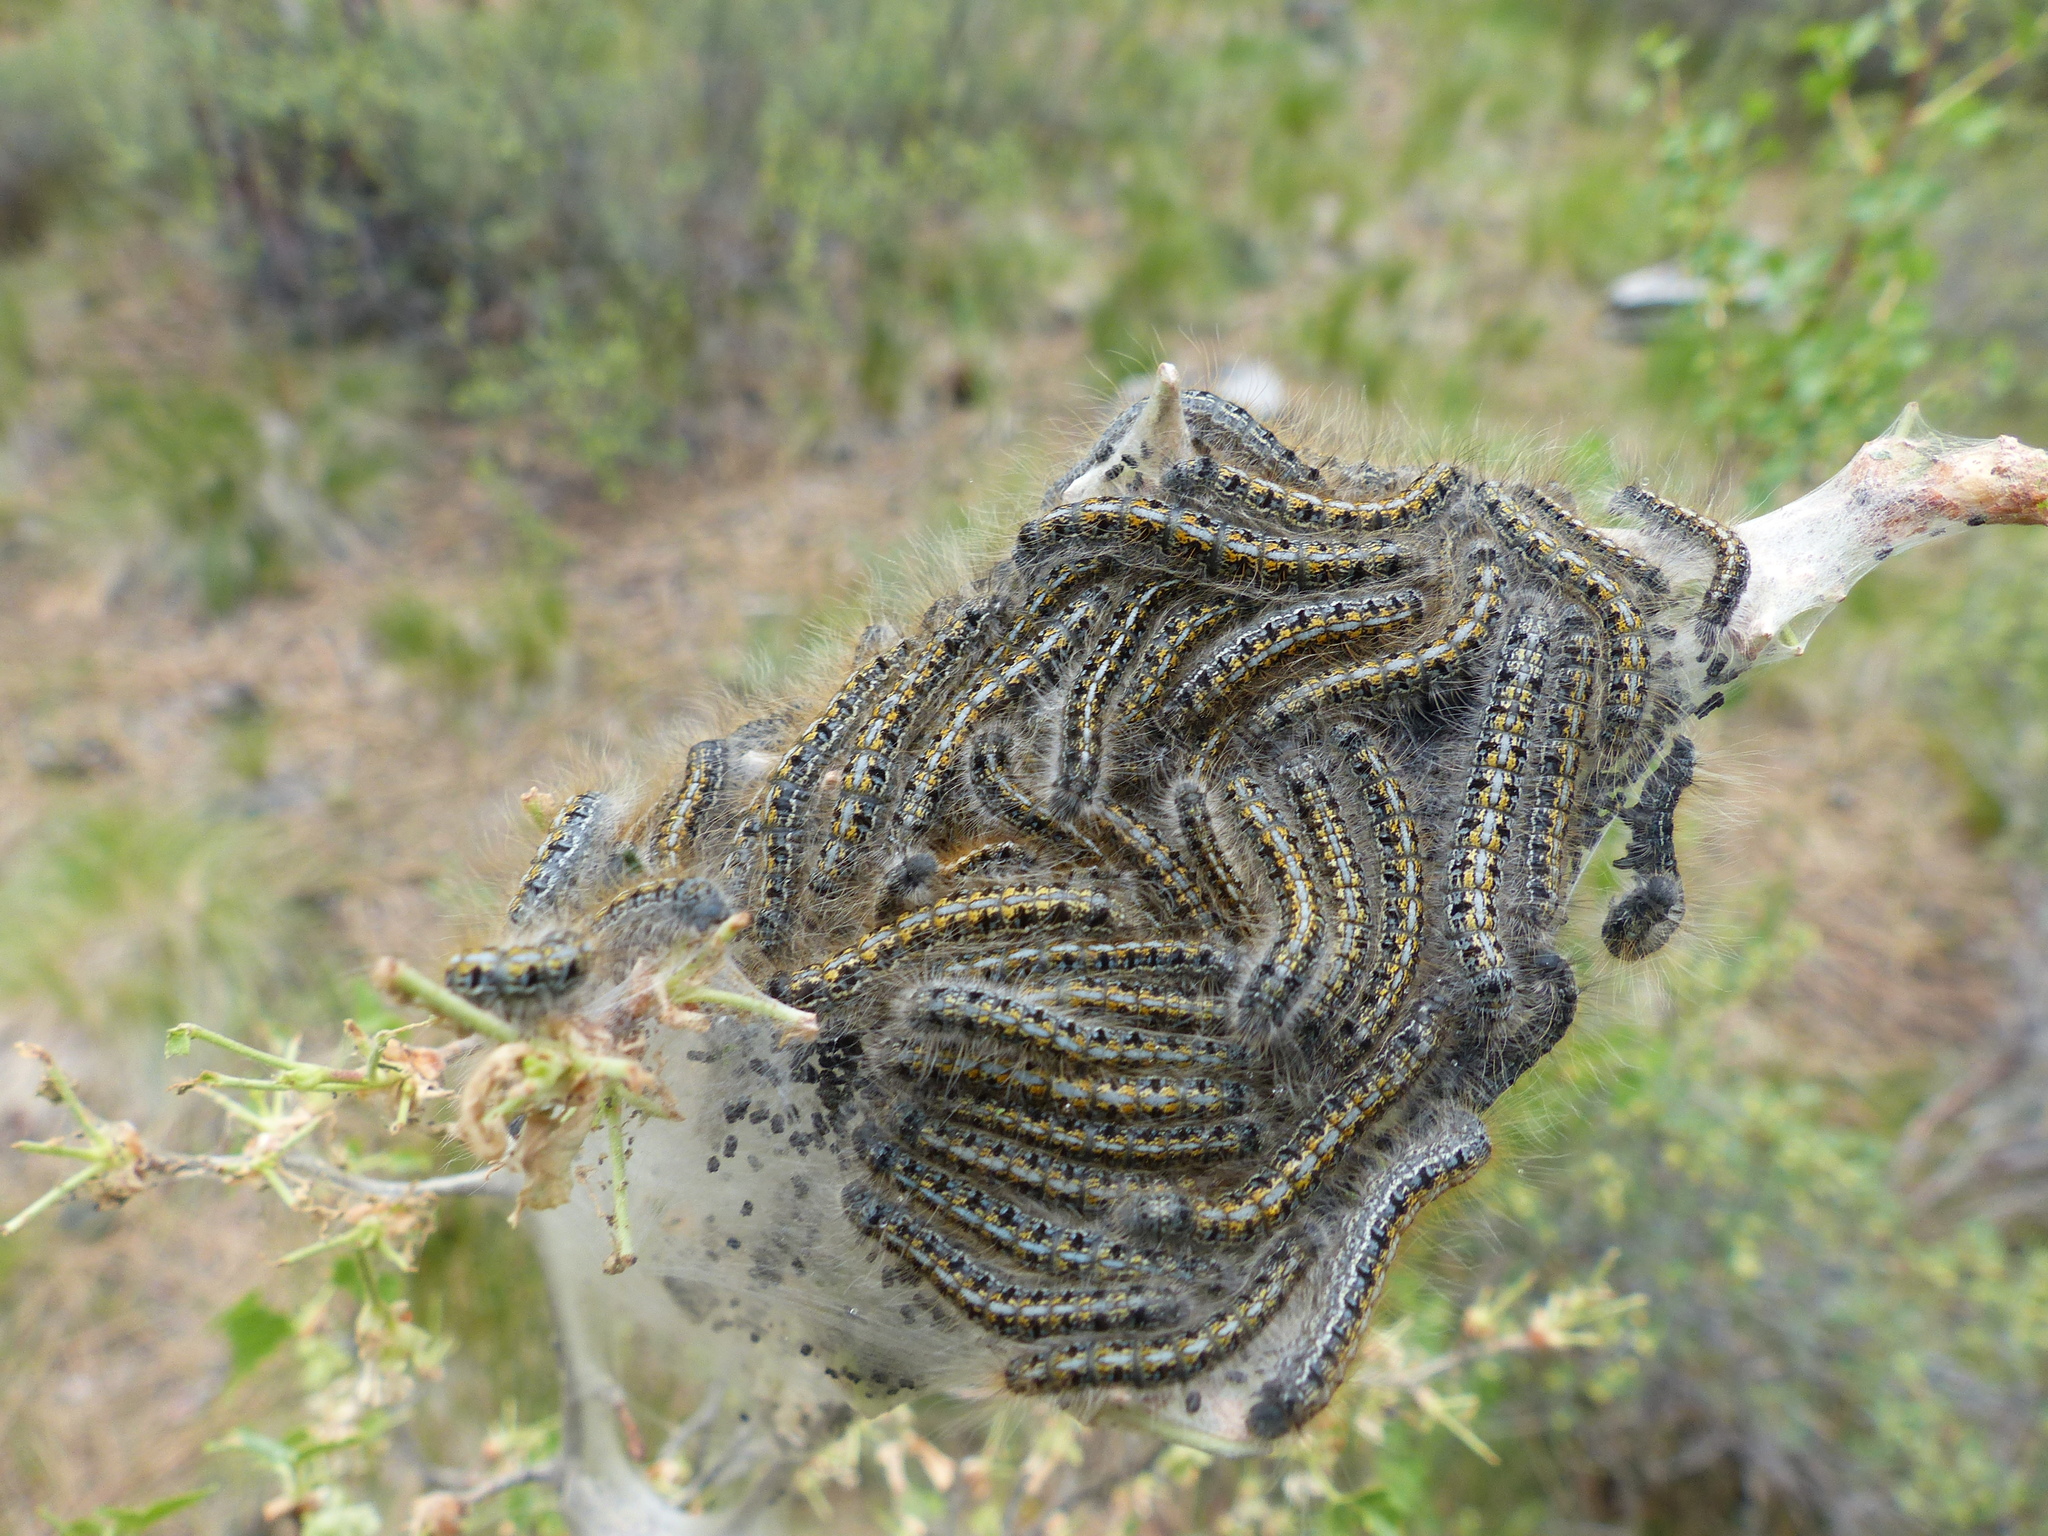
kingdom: Animalia
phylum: Arthropoda
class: Insecta
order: Lepidoptera
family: Lasiocampidae
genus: Malacosoma
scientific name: Malacosoma californica
